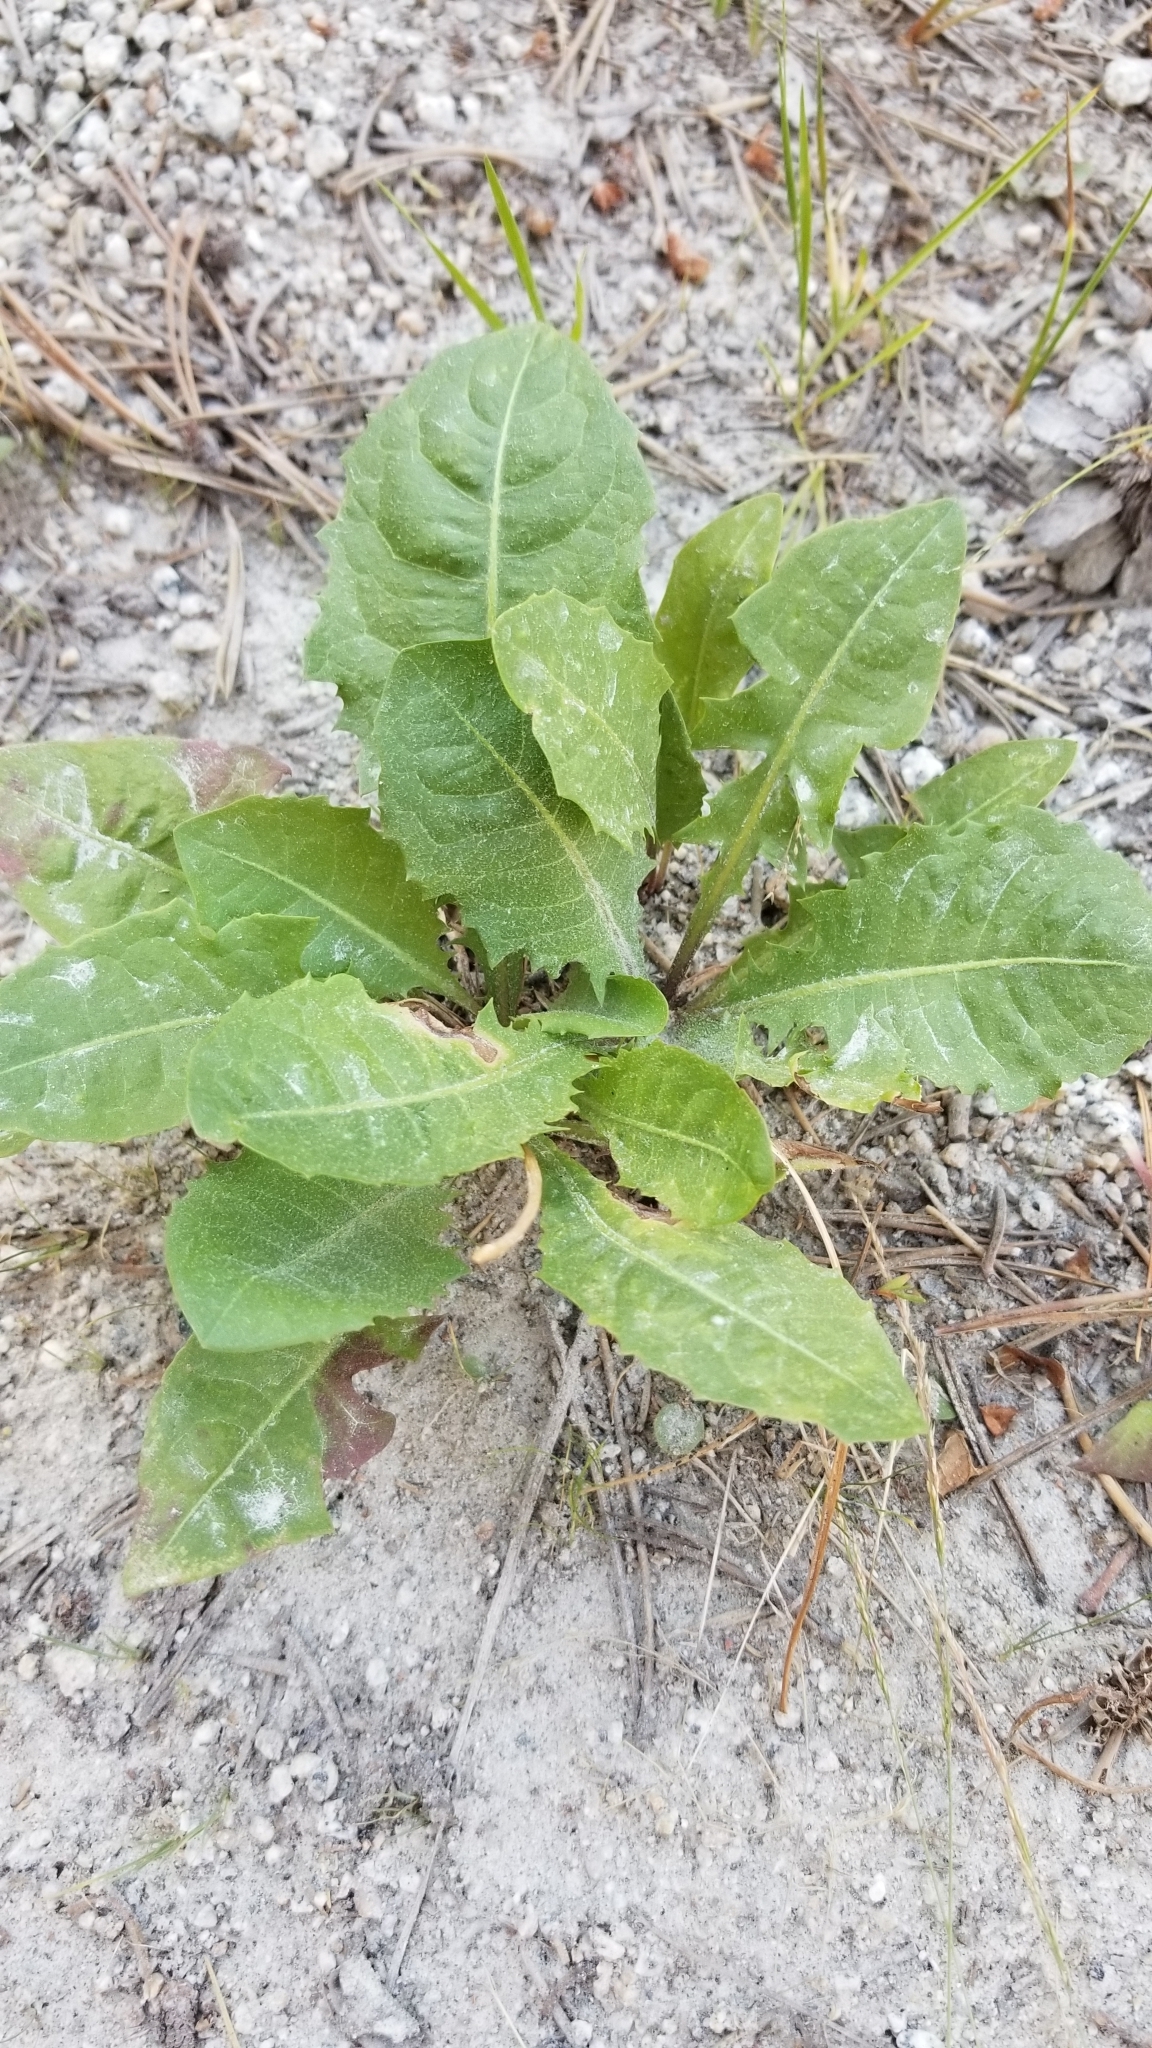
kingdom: Plantae
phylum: Tracheophyta
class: Magnoliopsida
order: Asterales
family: Asteraceae
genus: Taraxacum
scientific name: Taraxacum officinale
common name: Common dandelion
